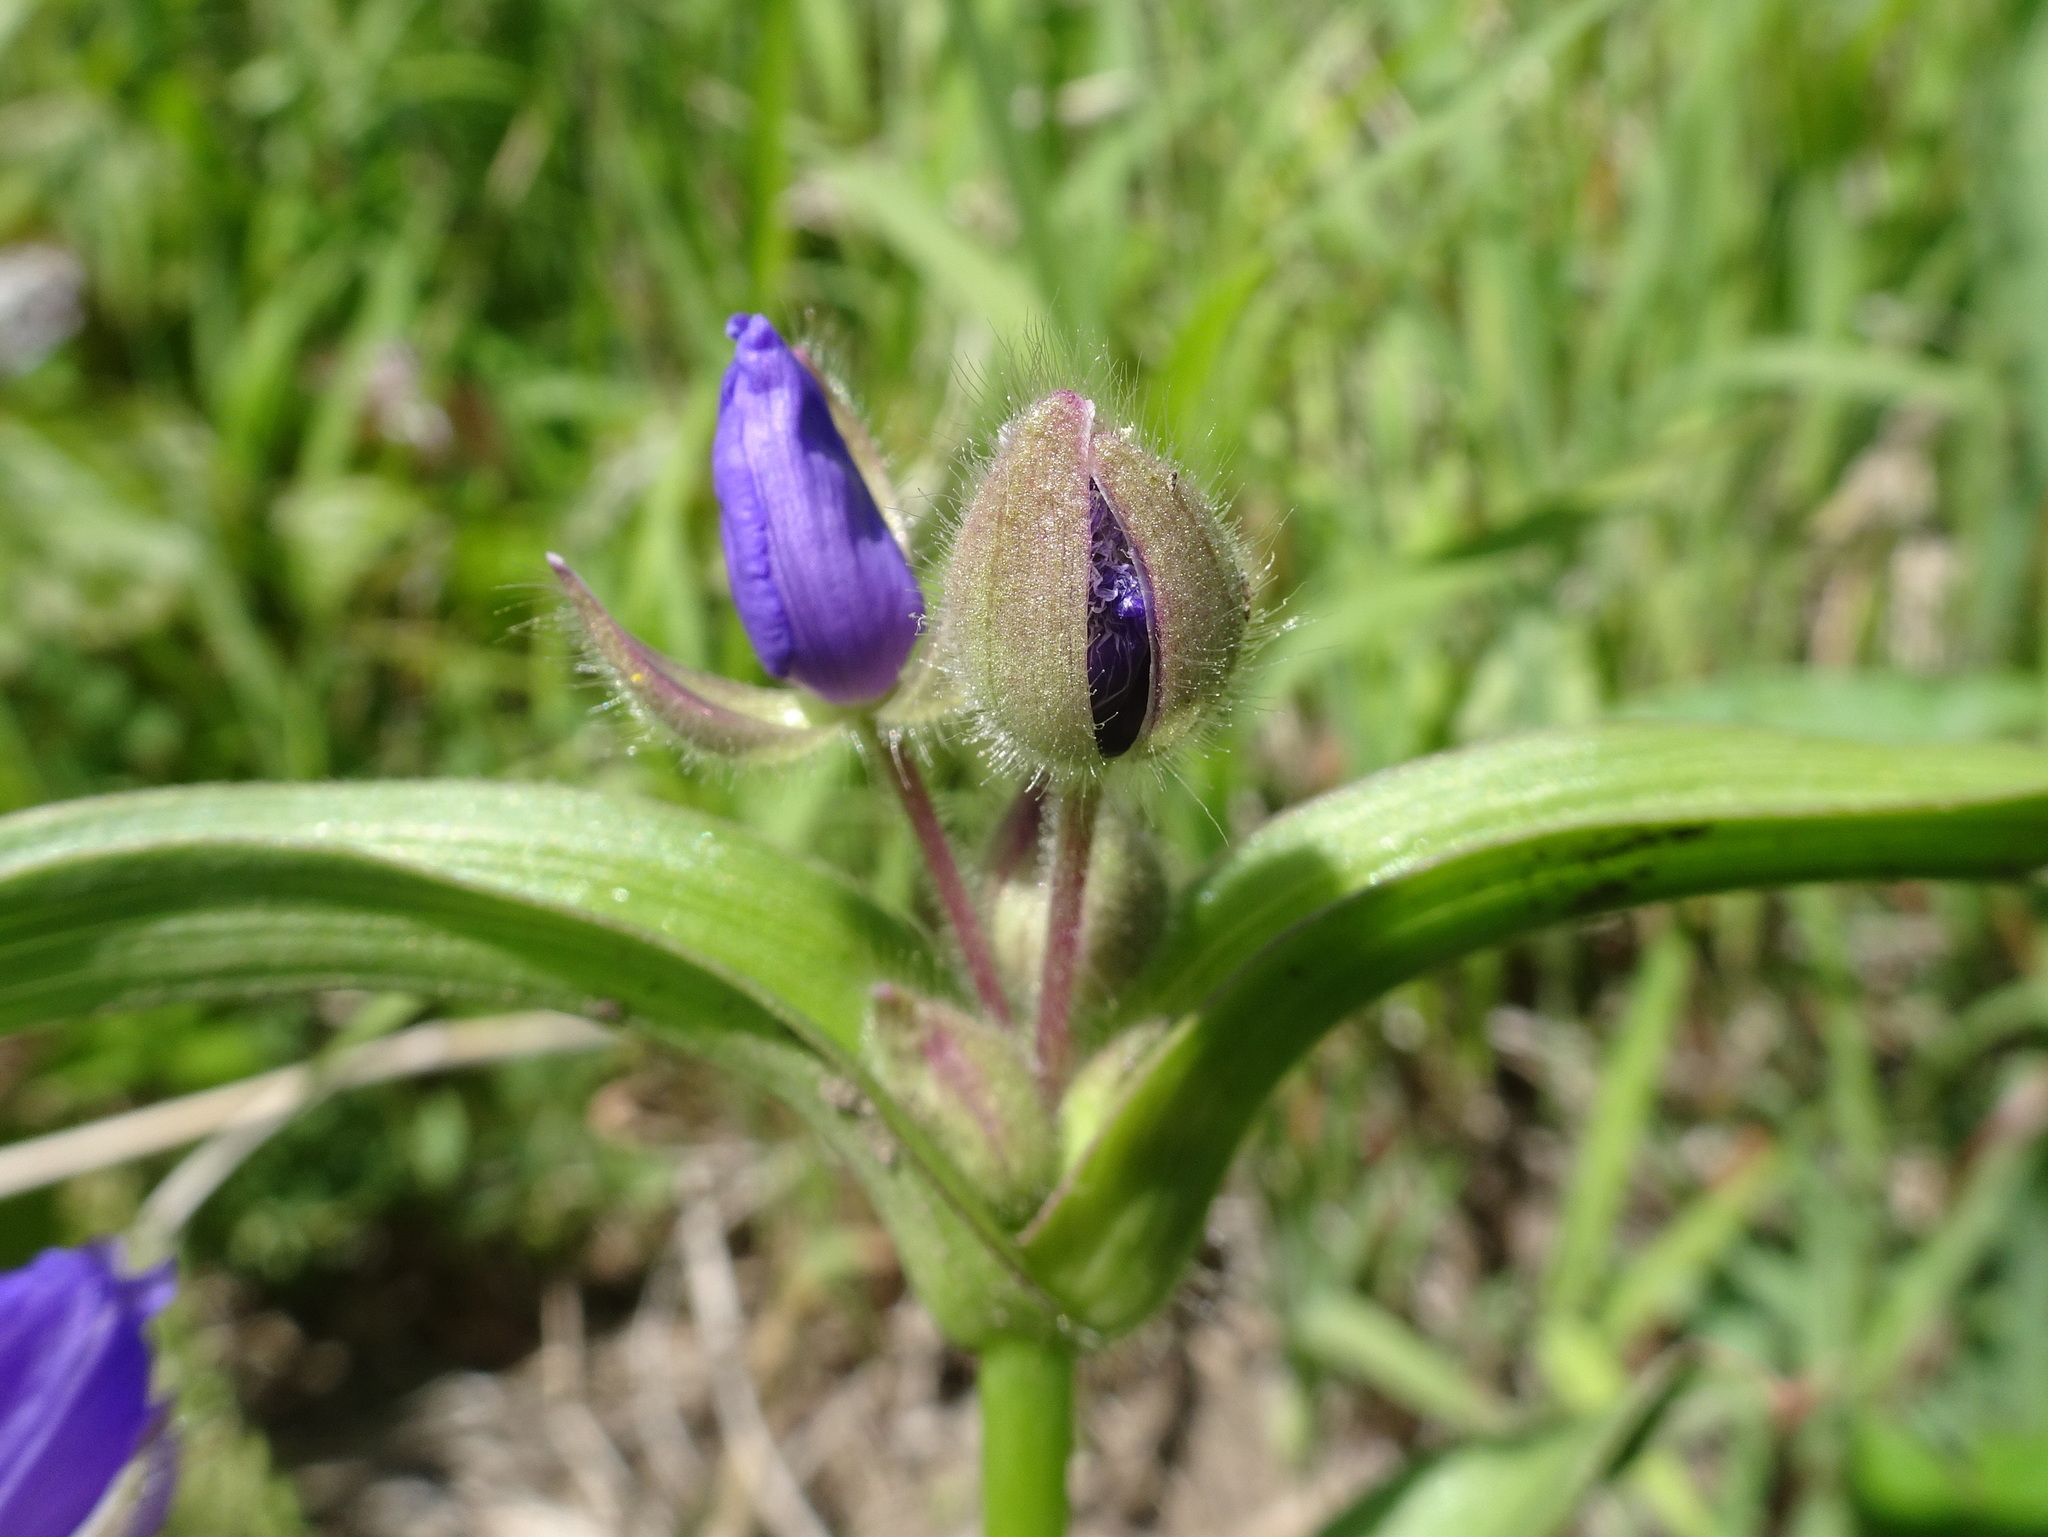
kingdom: Plantae
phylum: Tracheophyta
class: Liliopsida
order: Commelinales
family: Commelinaceae
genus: Tradescantia
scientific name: Tradescantia bracteata
